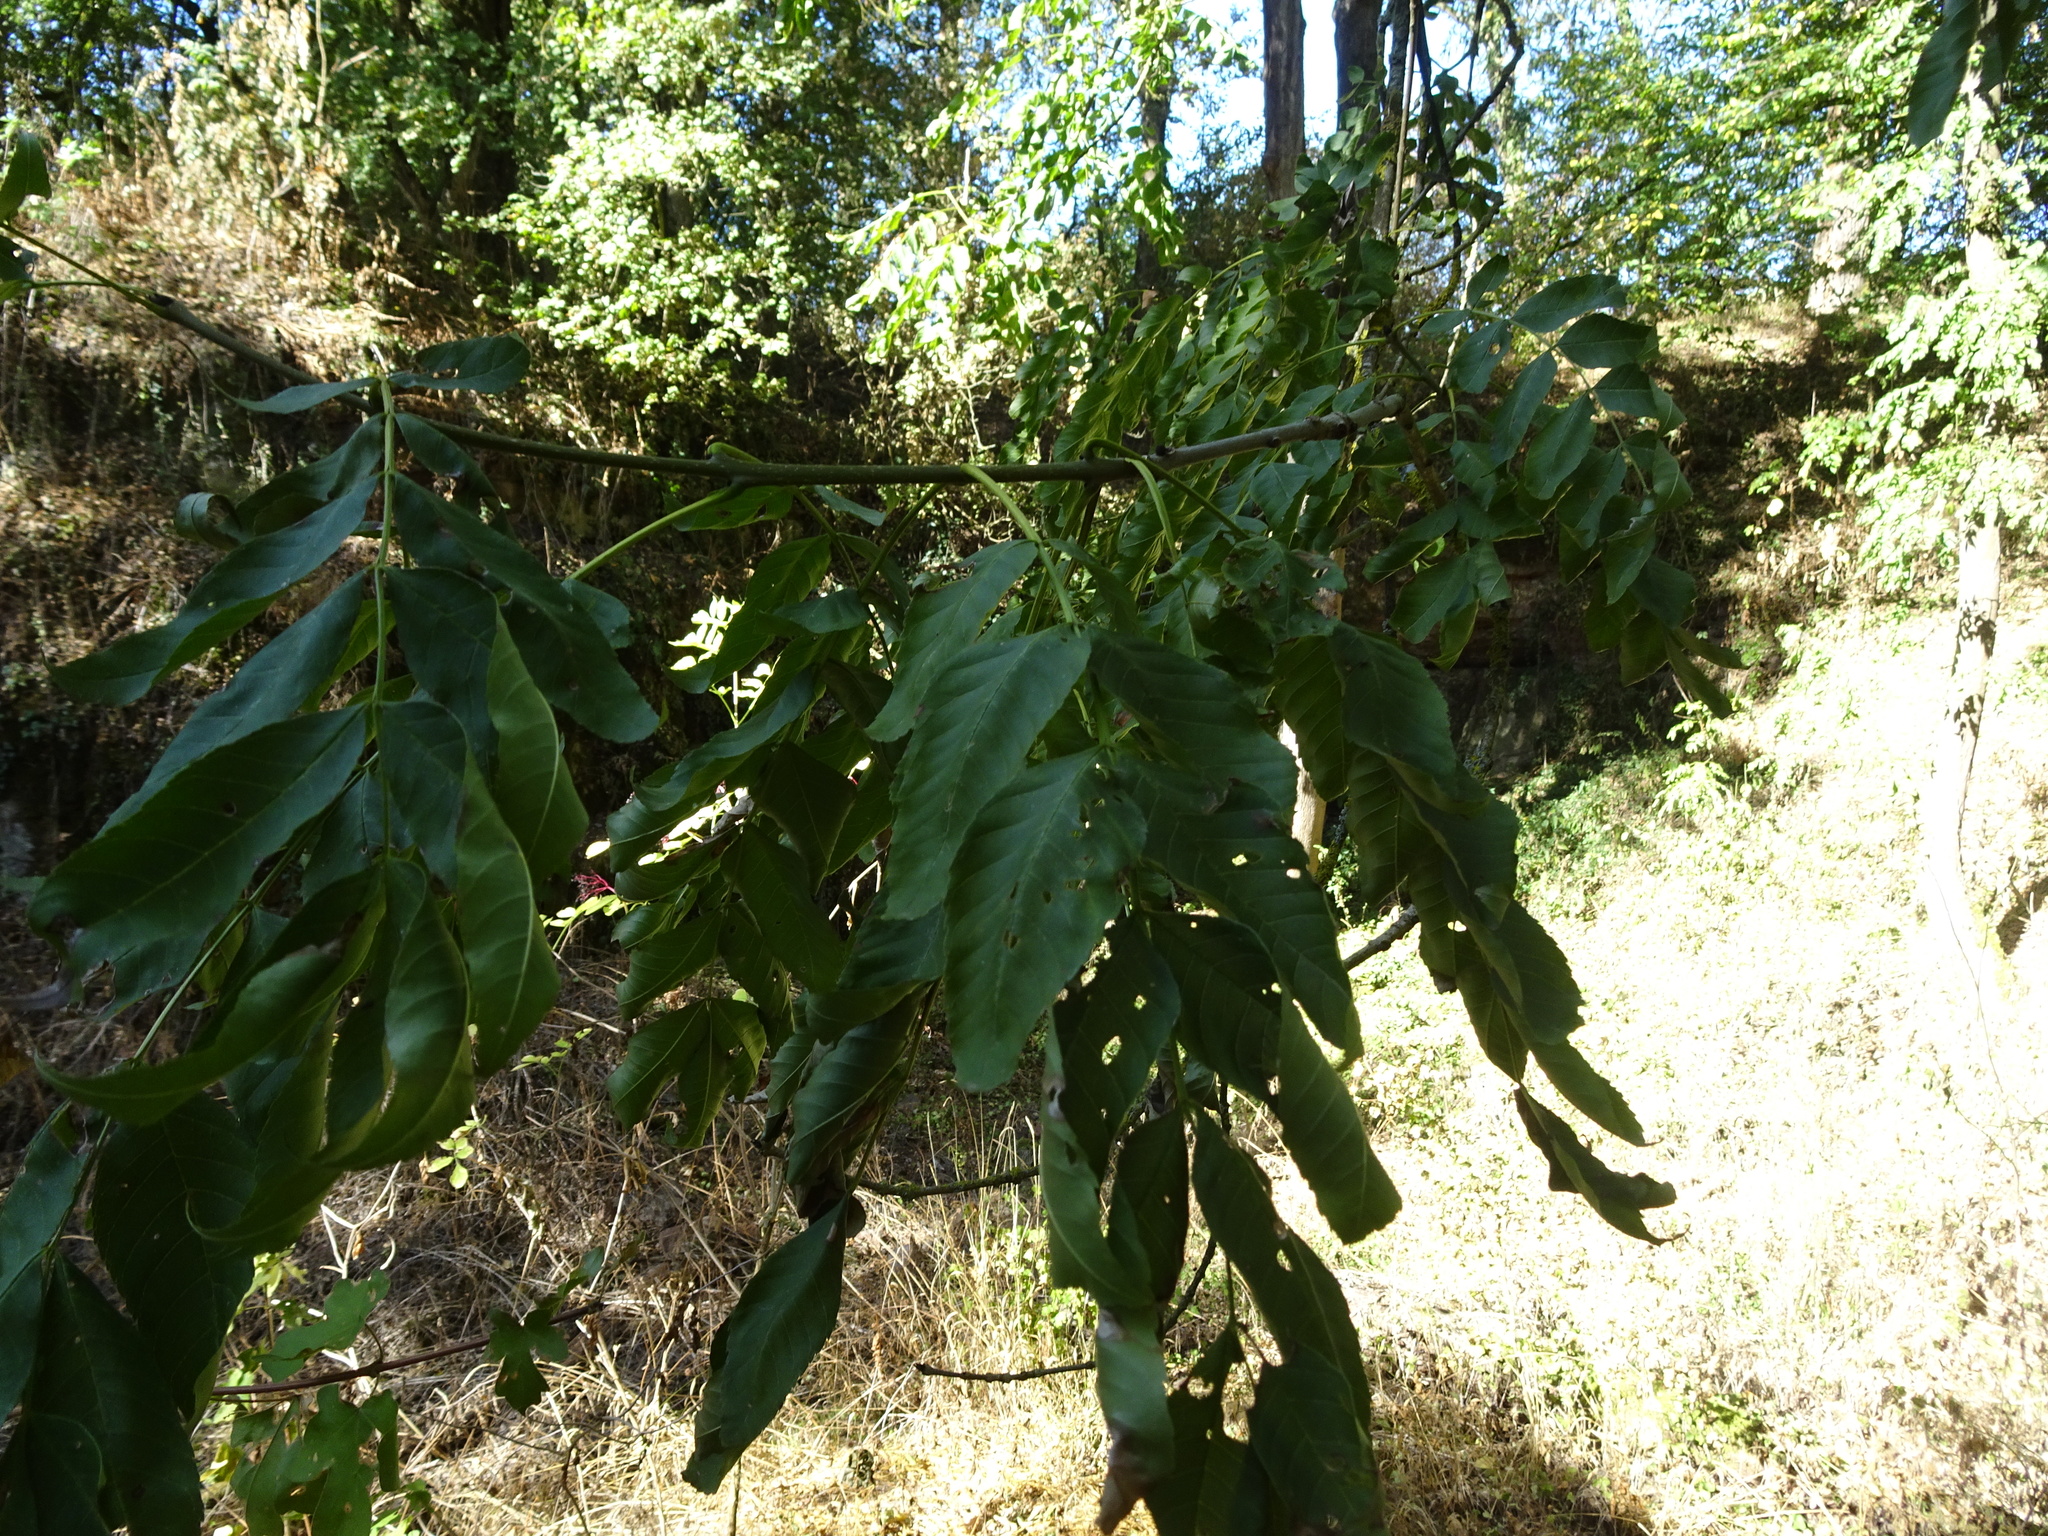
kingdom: Plantae
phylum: Tracheophyta
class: Magnoliopsida
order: Lamiales
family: Oleaceae
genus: Fraxinus
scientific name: Fraxinus excelsior
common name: European ash
